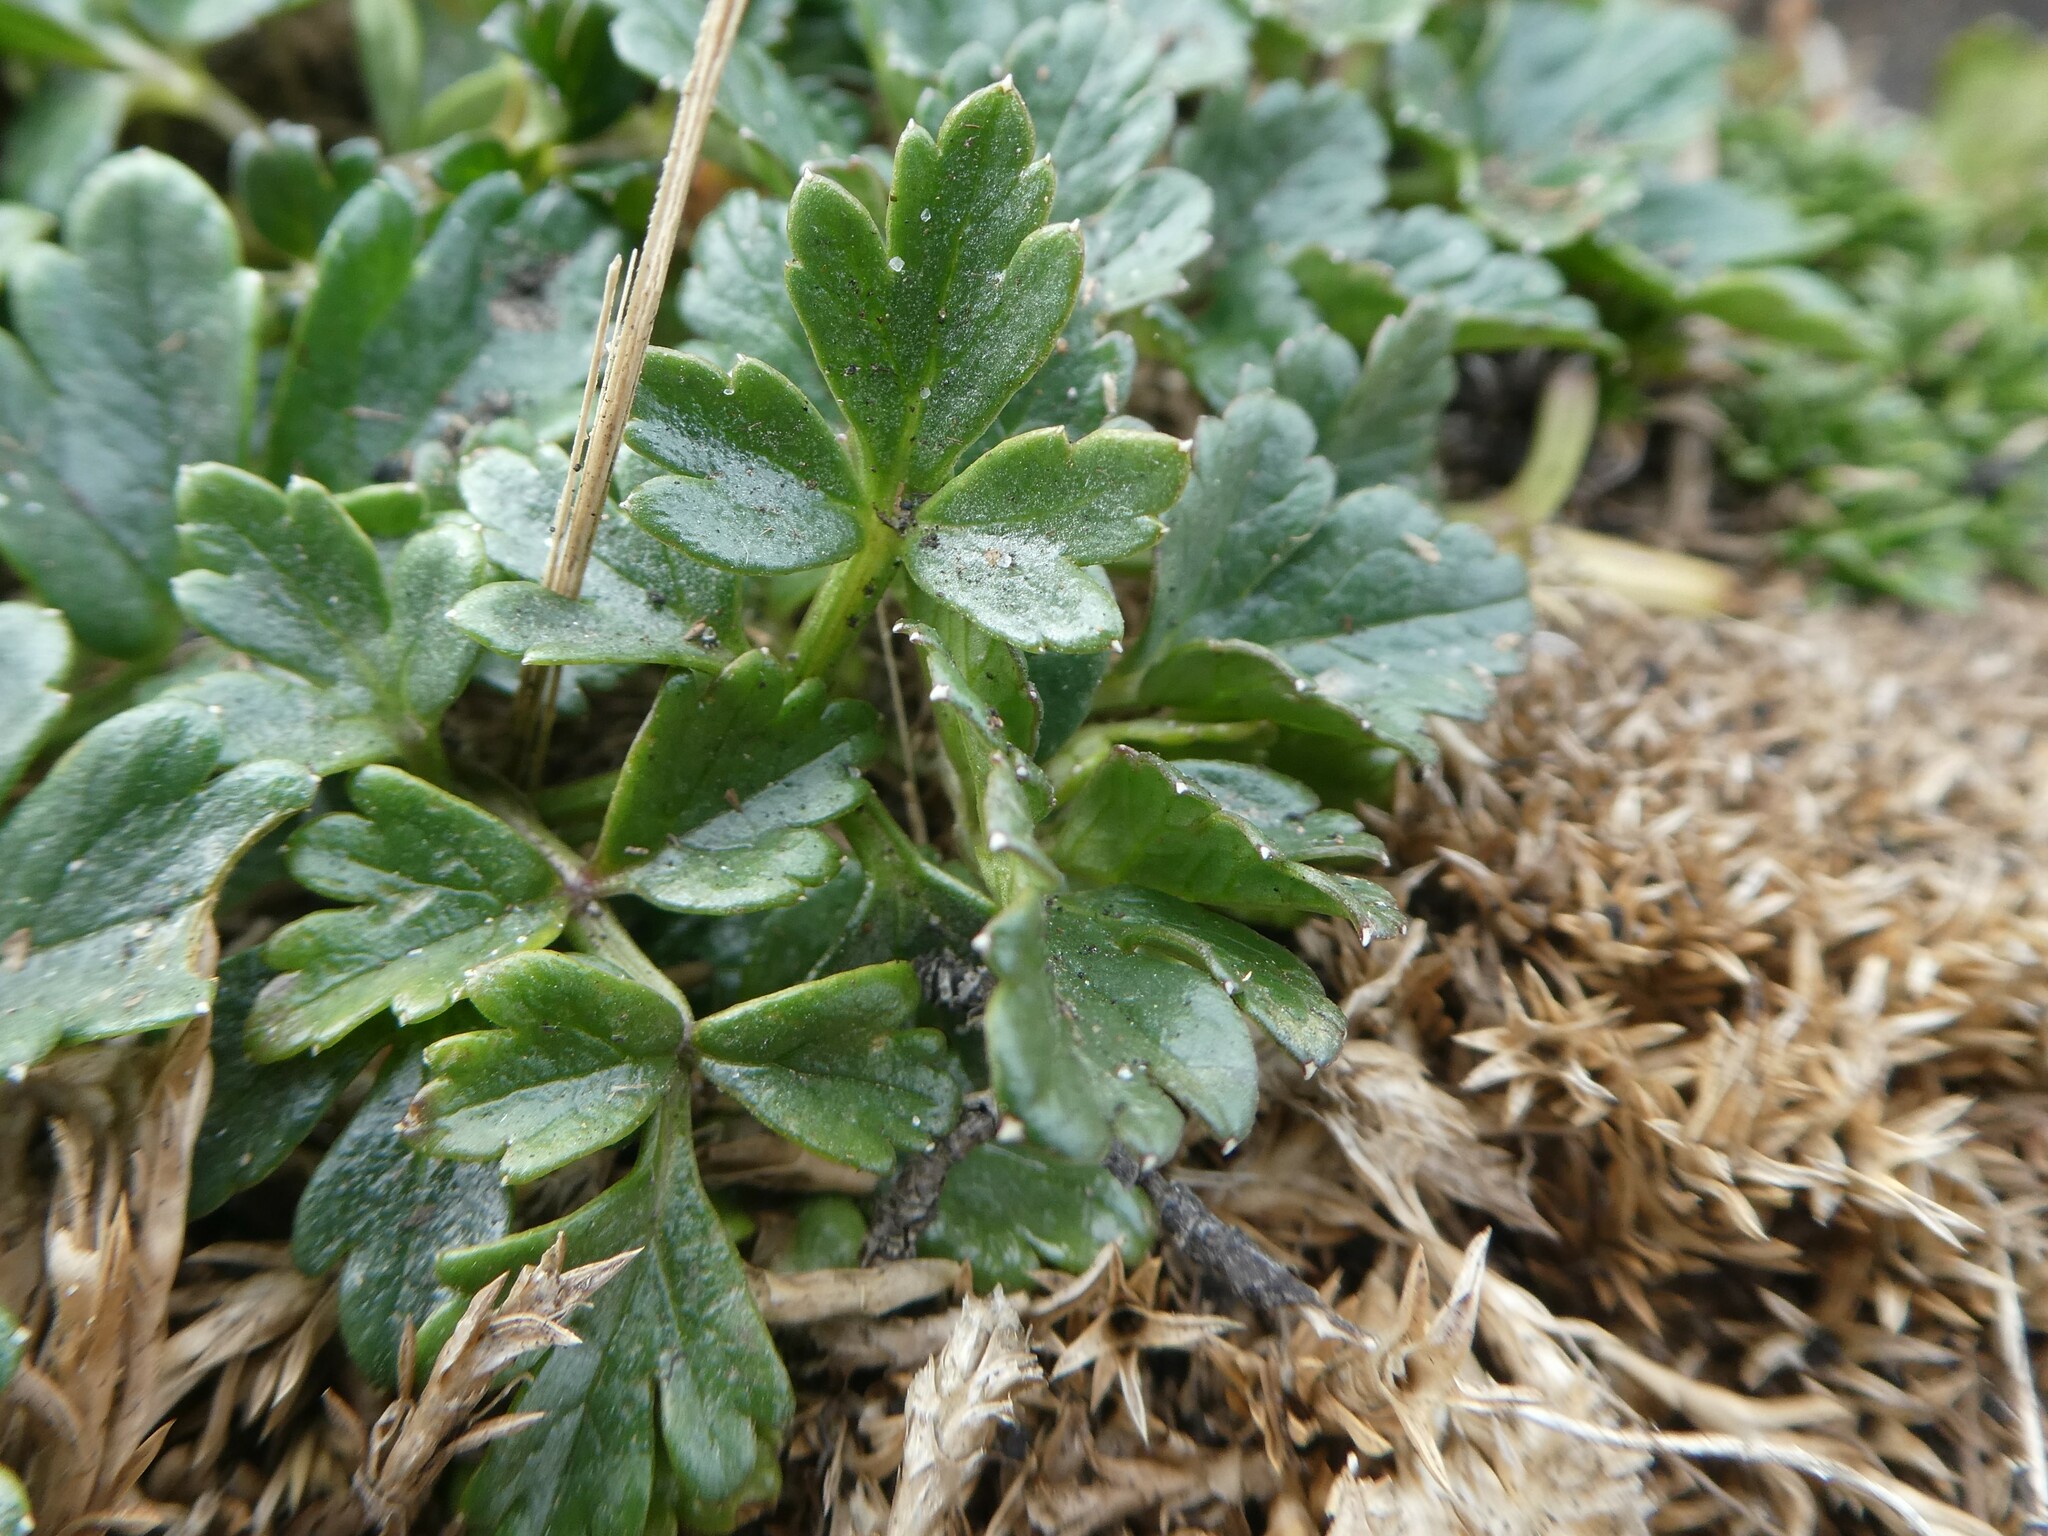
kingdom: Plantae
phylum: Tracheophyta
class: Magnoliopsida
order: Apiales
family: Apiaceae
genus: Apium
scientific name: Apium prostratum
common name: Prostrate marshwort
